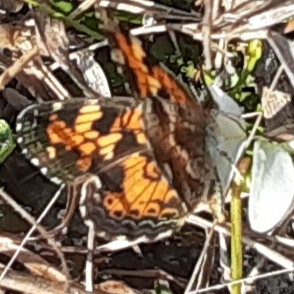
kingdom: Animalia
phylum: Arthropoda
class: Insecta
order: Lepidoptera
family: Nymphalidae
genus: Phyciodes
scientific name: Phyciodes phaon
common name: Phaon crescent
